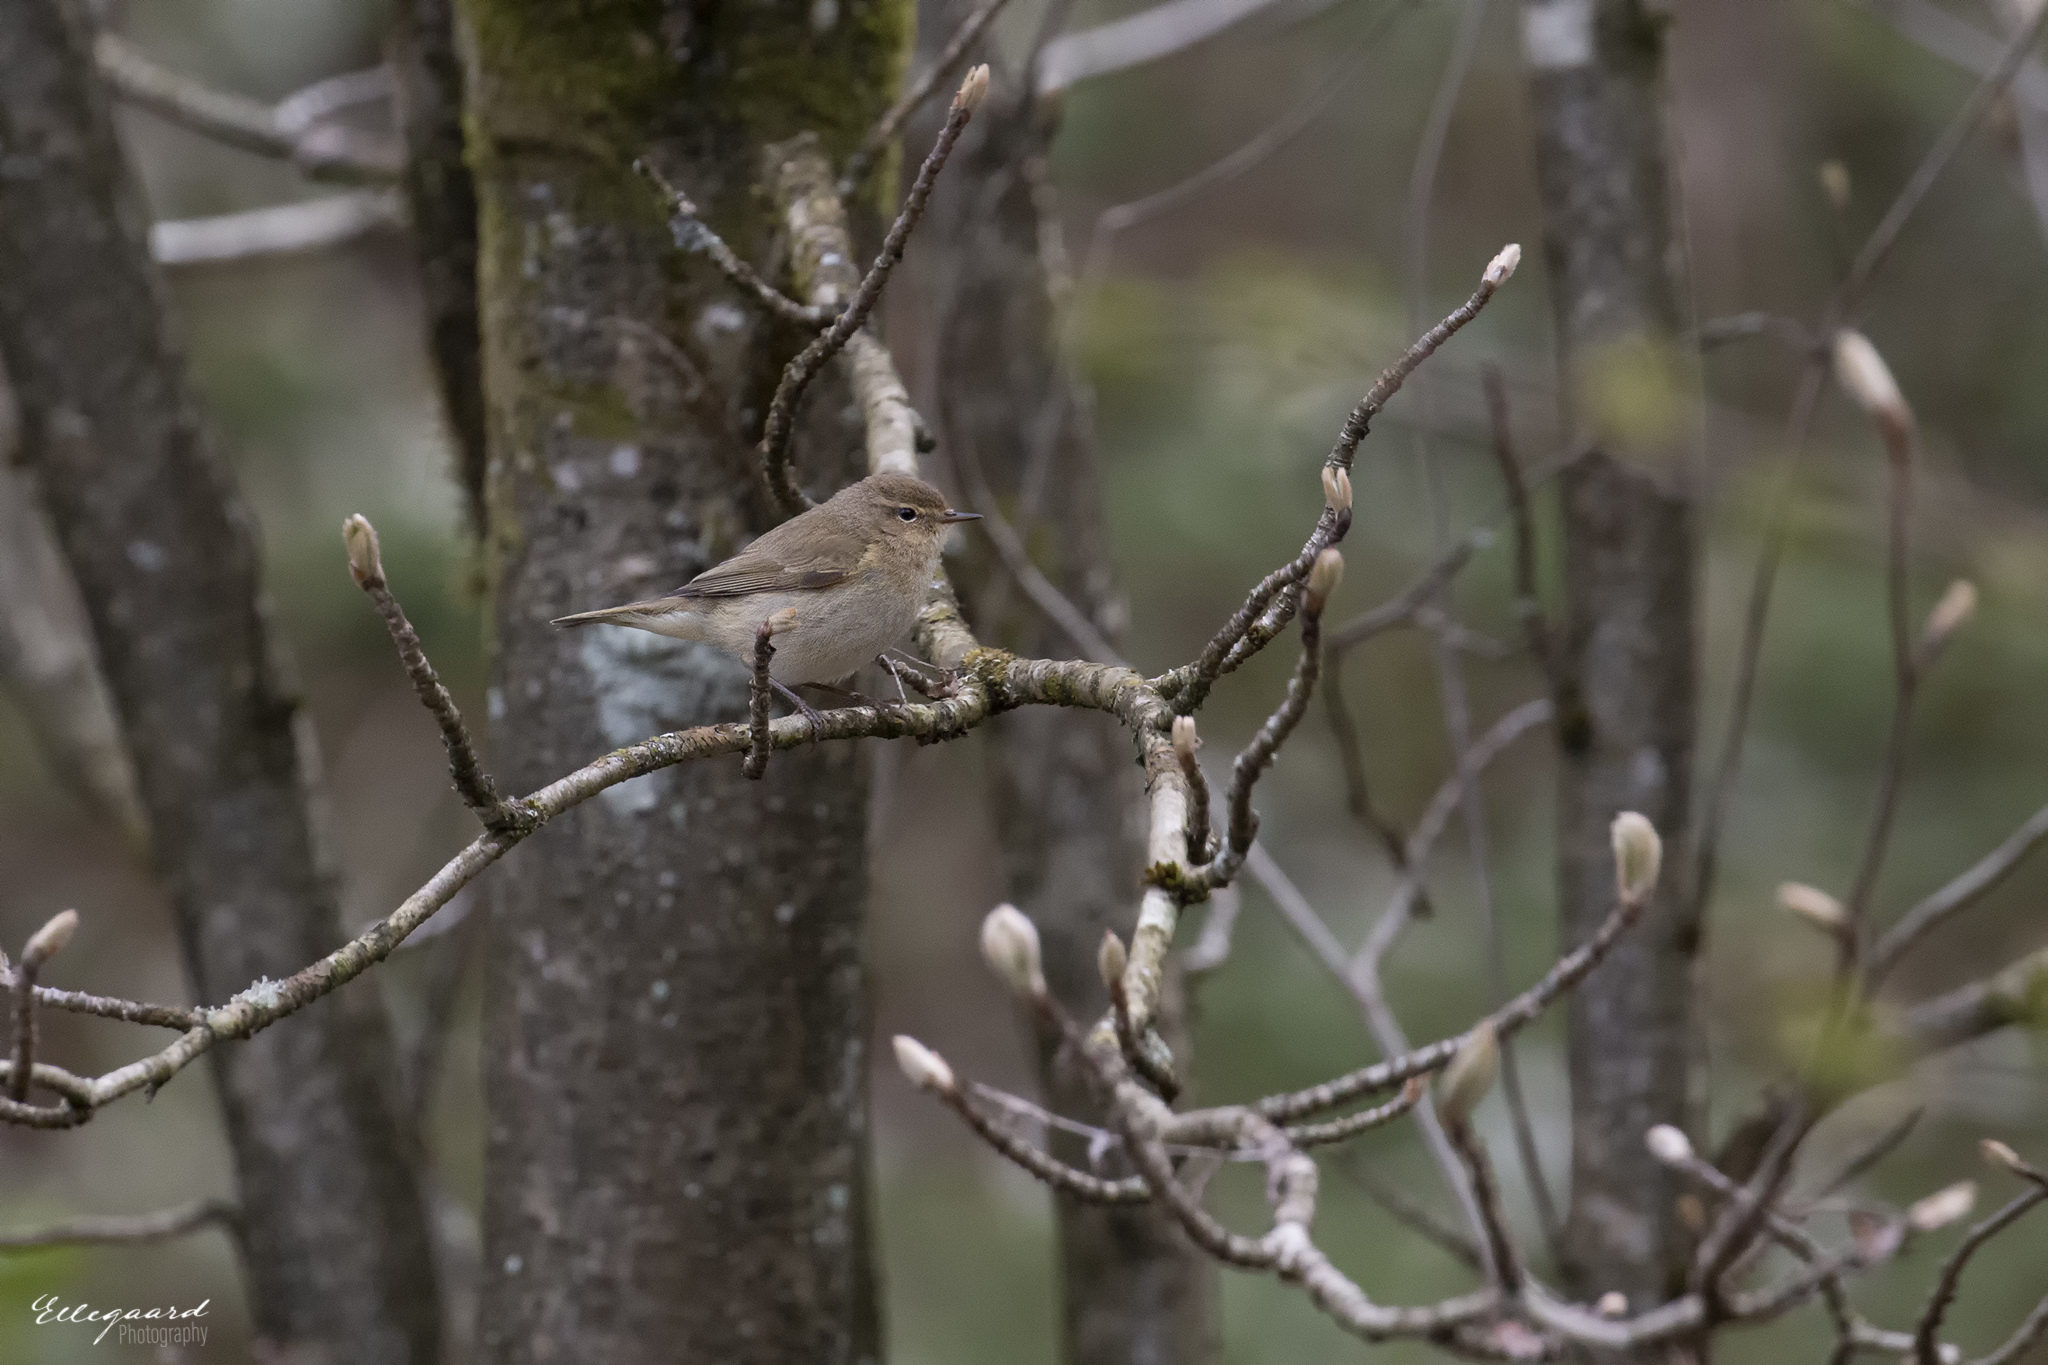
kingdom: Animalia
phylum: Chordata
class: Aves
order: Passeriformes
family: Phylloscopidae
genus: Phylloscopus
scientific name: Phylloscopus collybita
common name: Common chiffchaff
